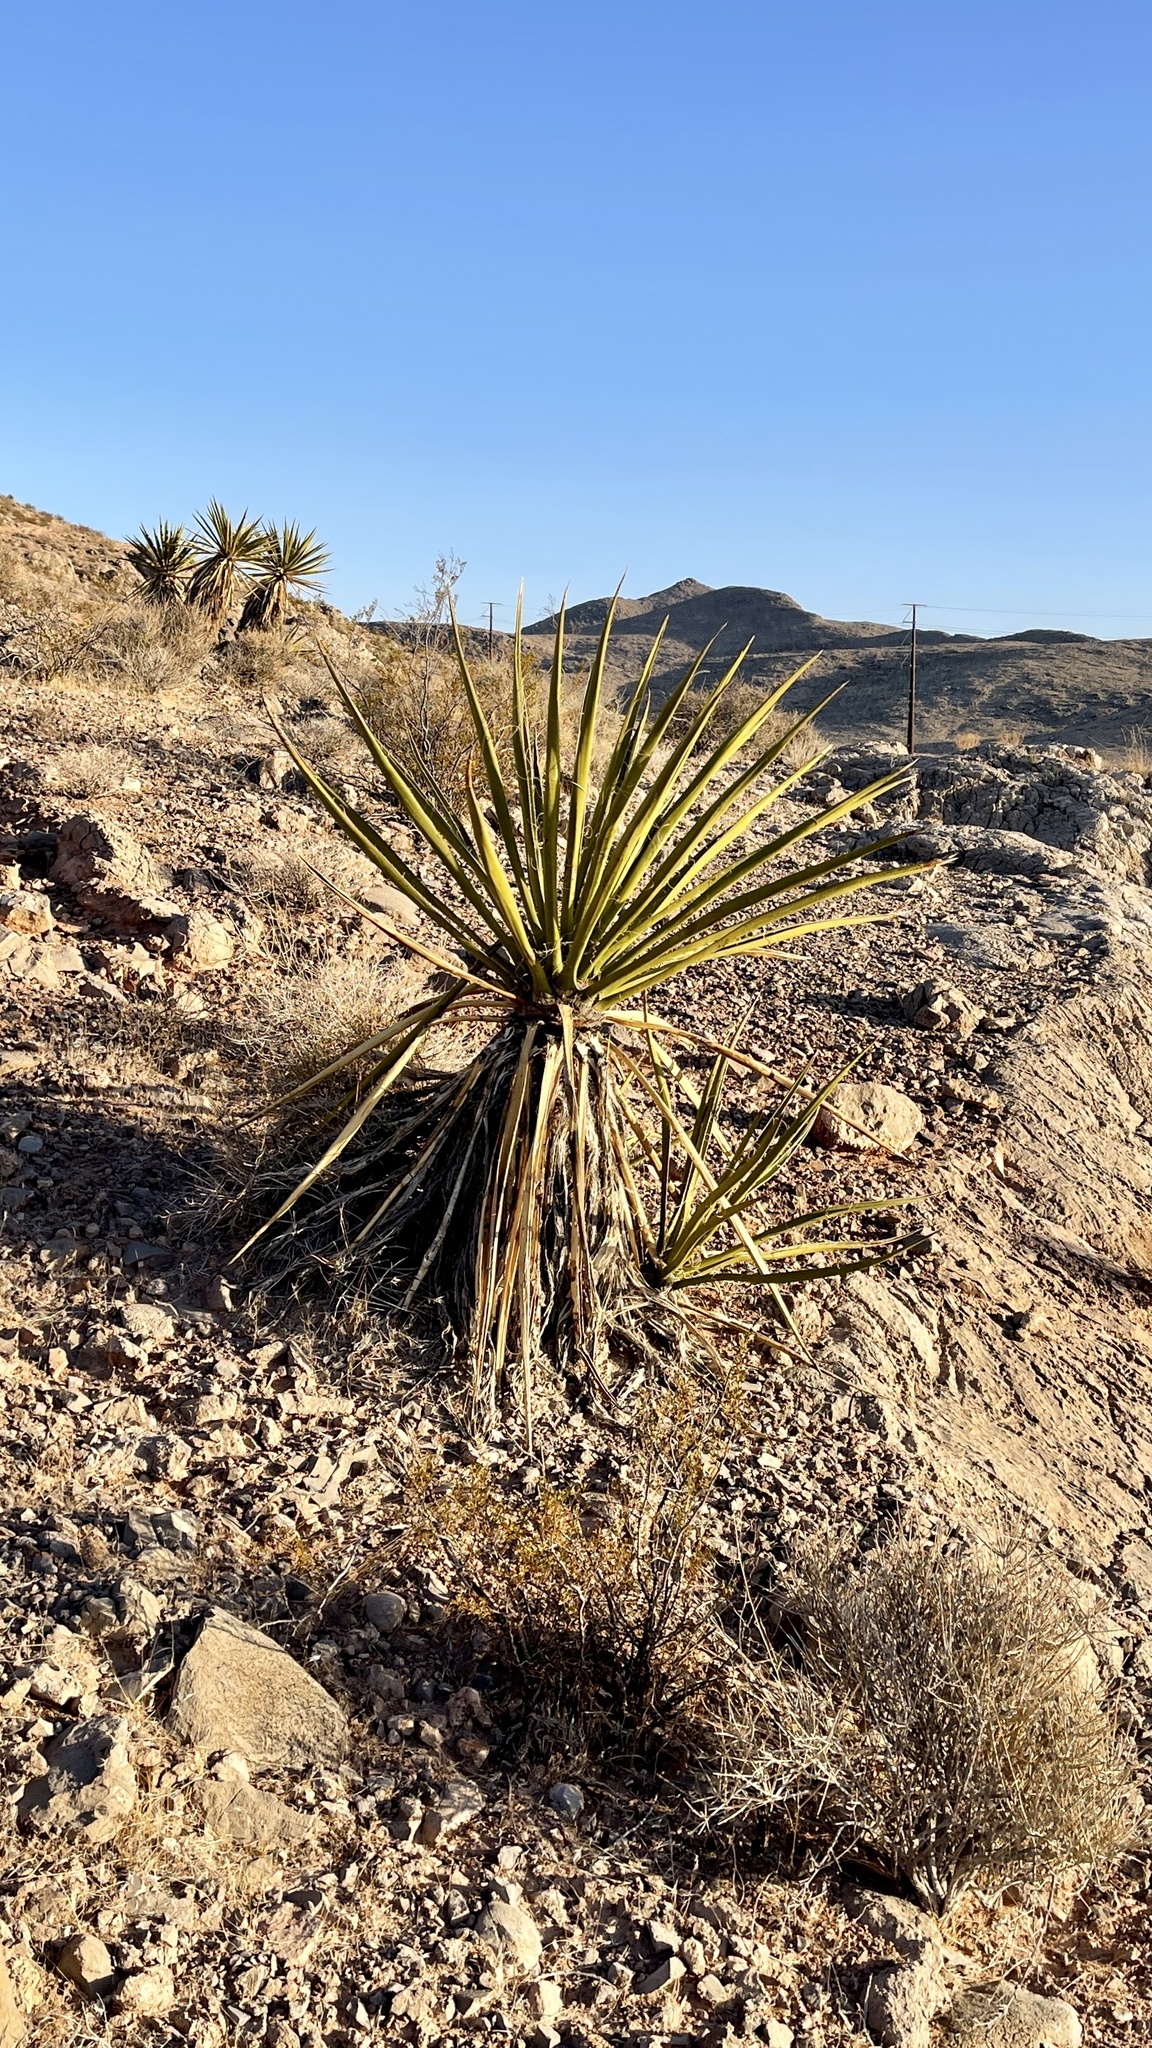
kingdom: Plantae
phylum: Tracheophyta
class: Liliopsida
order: Asparagales
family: Asparagaceae
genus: Yucca
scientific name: Yucca schidigera
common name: Mojave yucca
